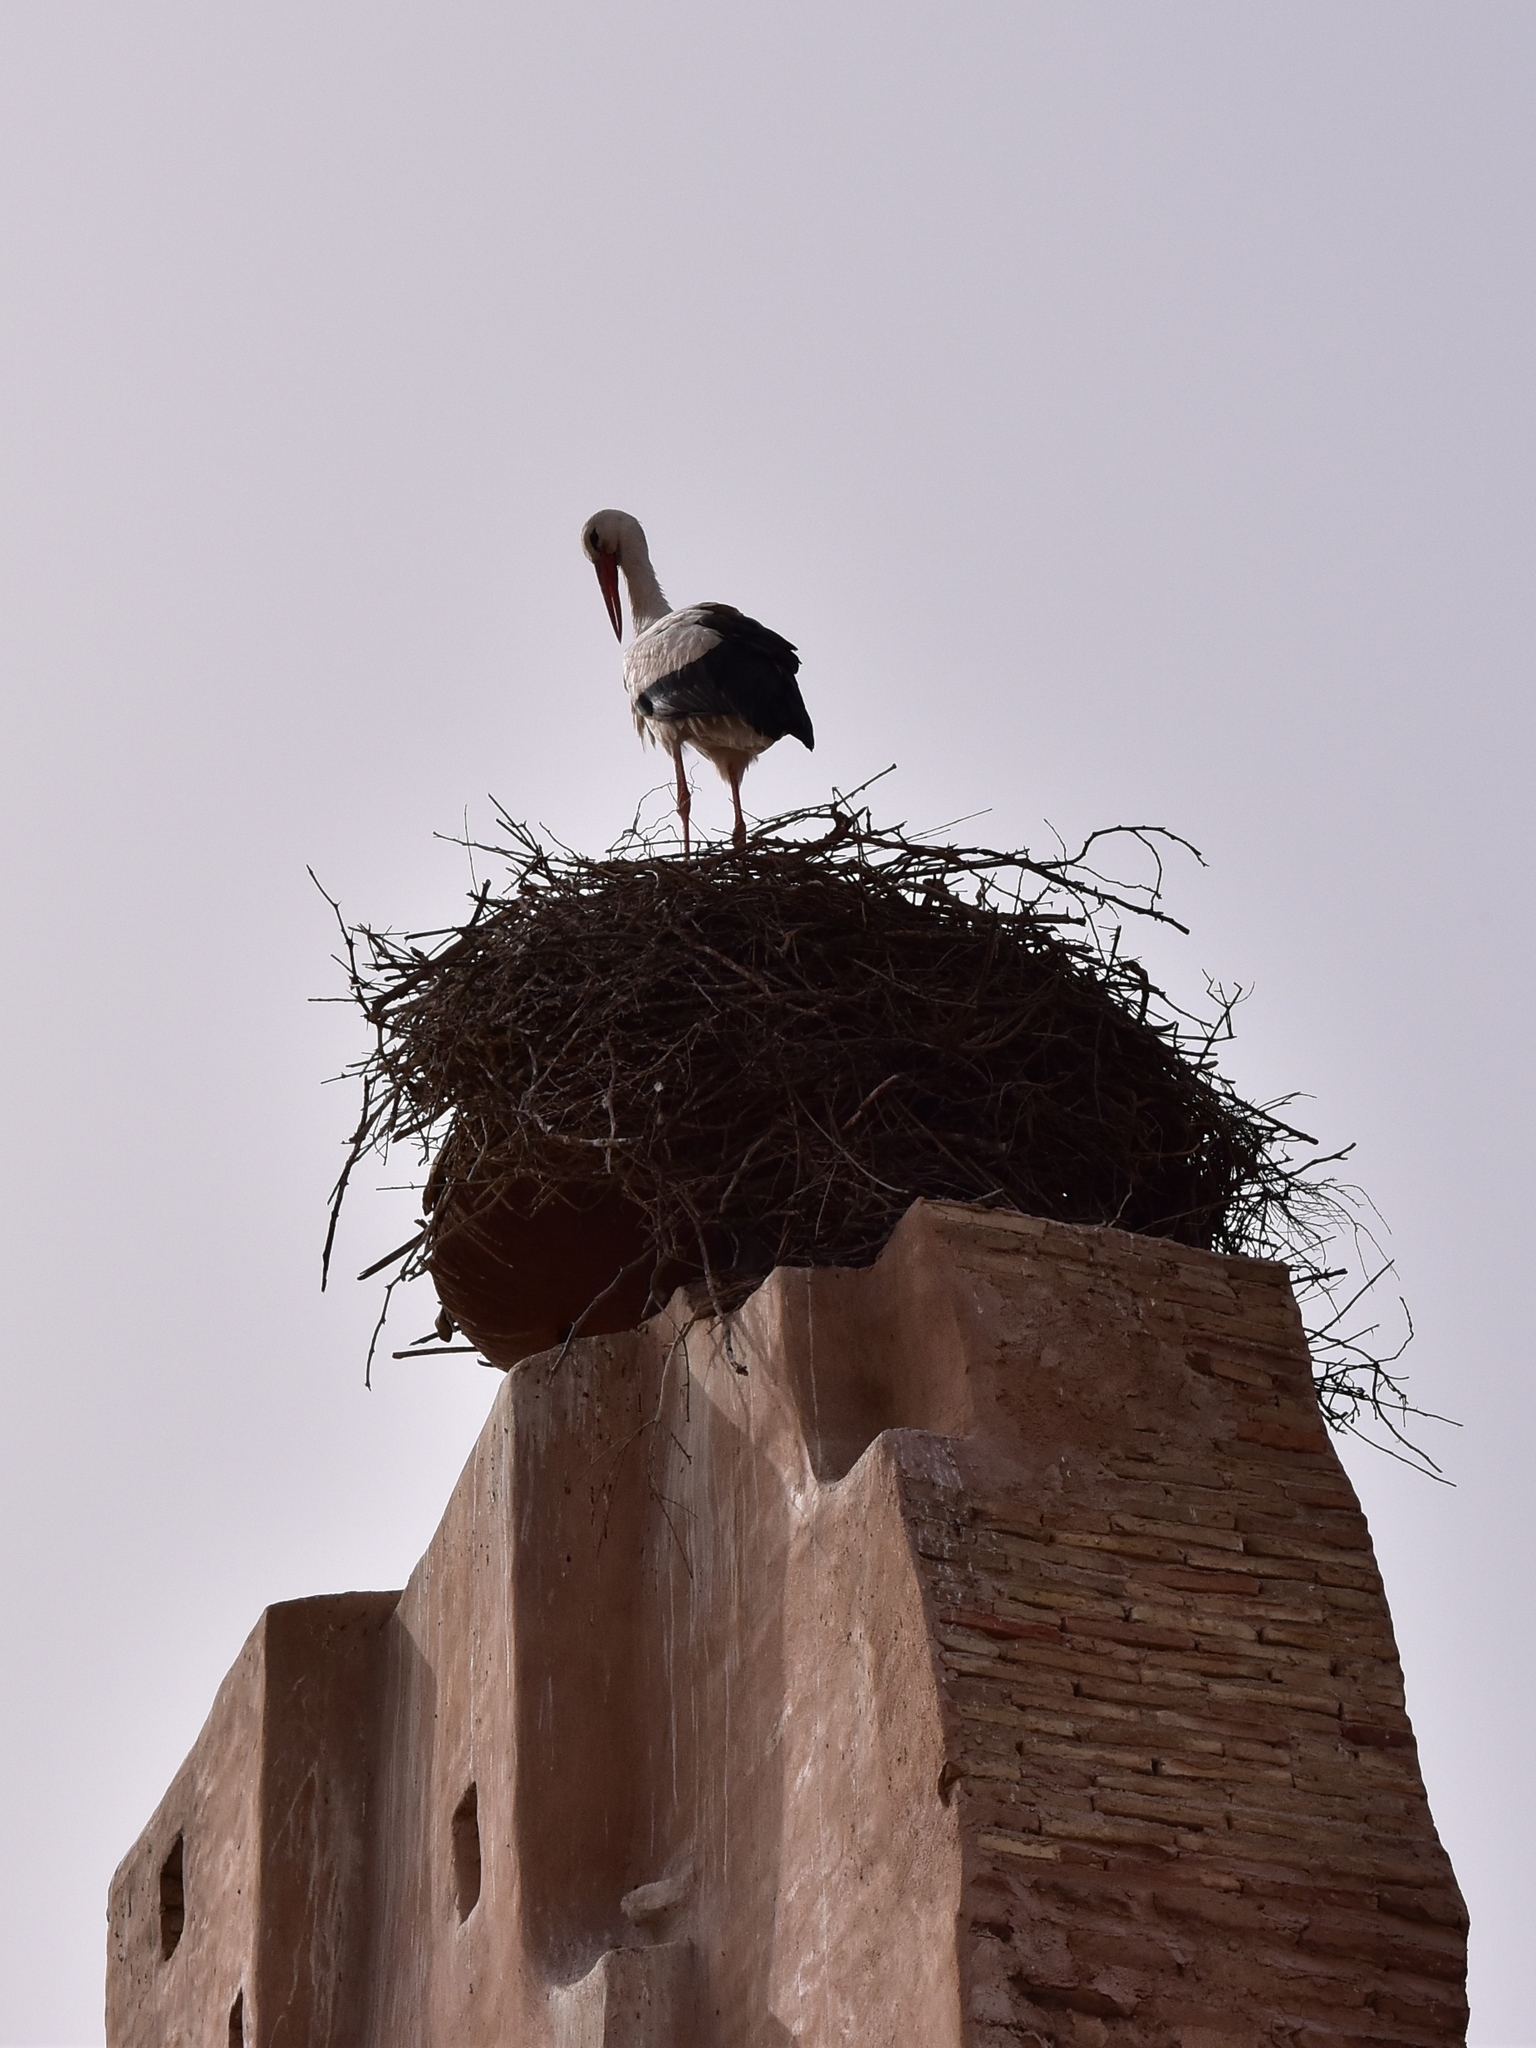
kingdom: Animalia
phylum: Chordata
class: Aves
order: Ciconiiformes
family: Ciconiidae
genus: Ciconia
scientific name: Ciconia ciconia
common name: White stork
